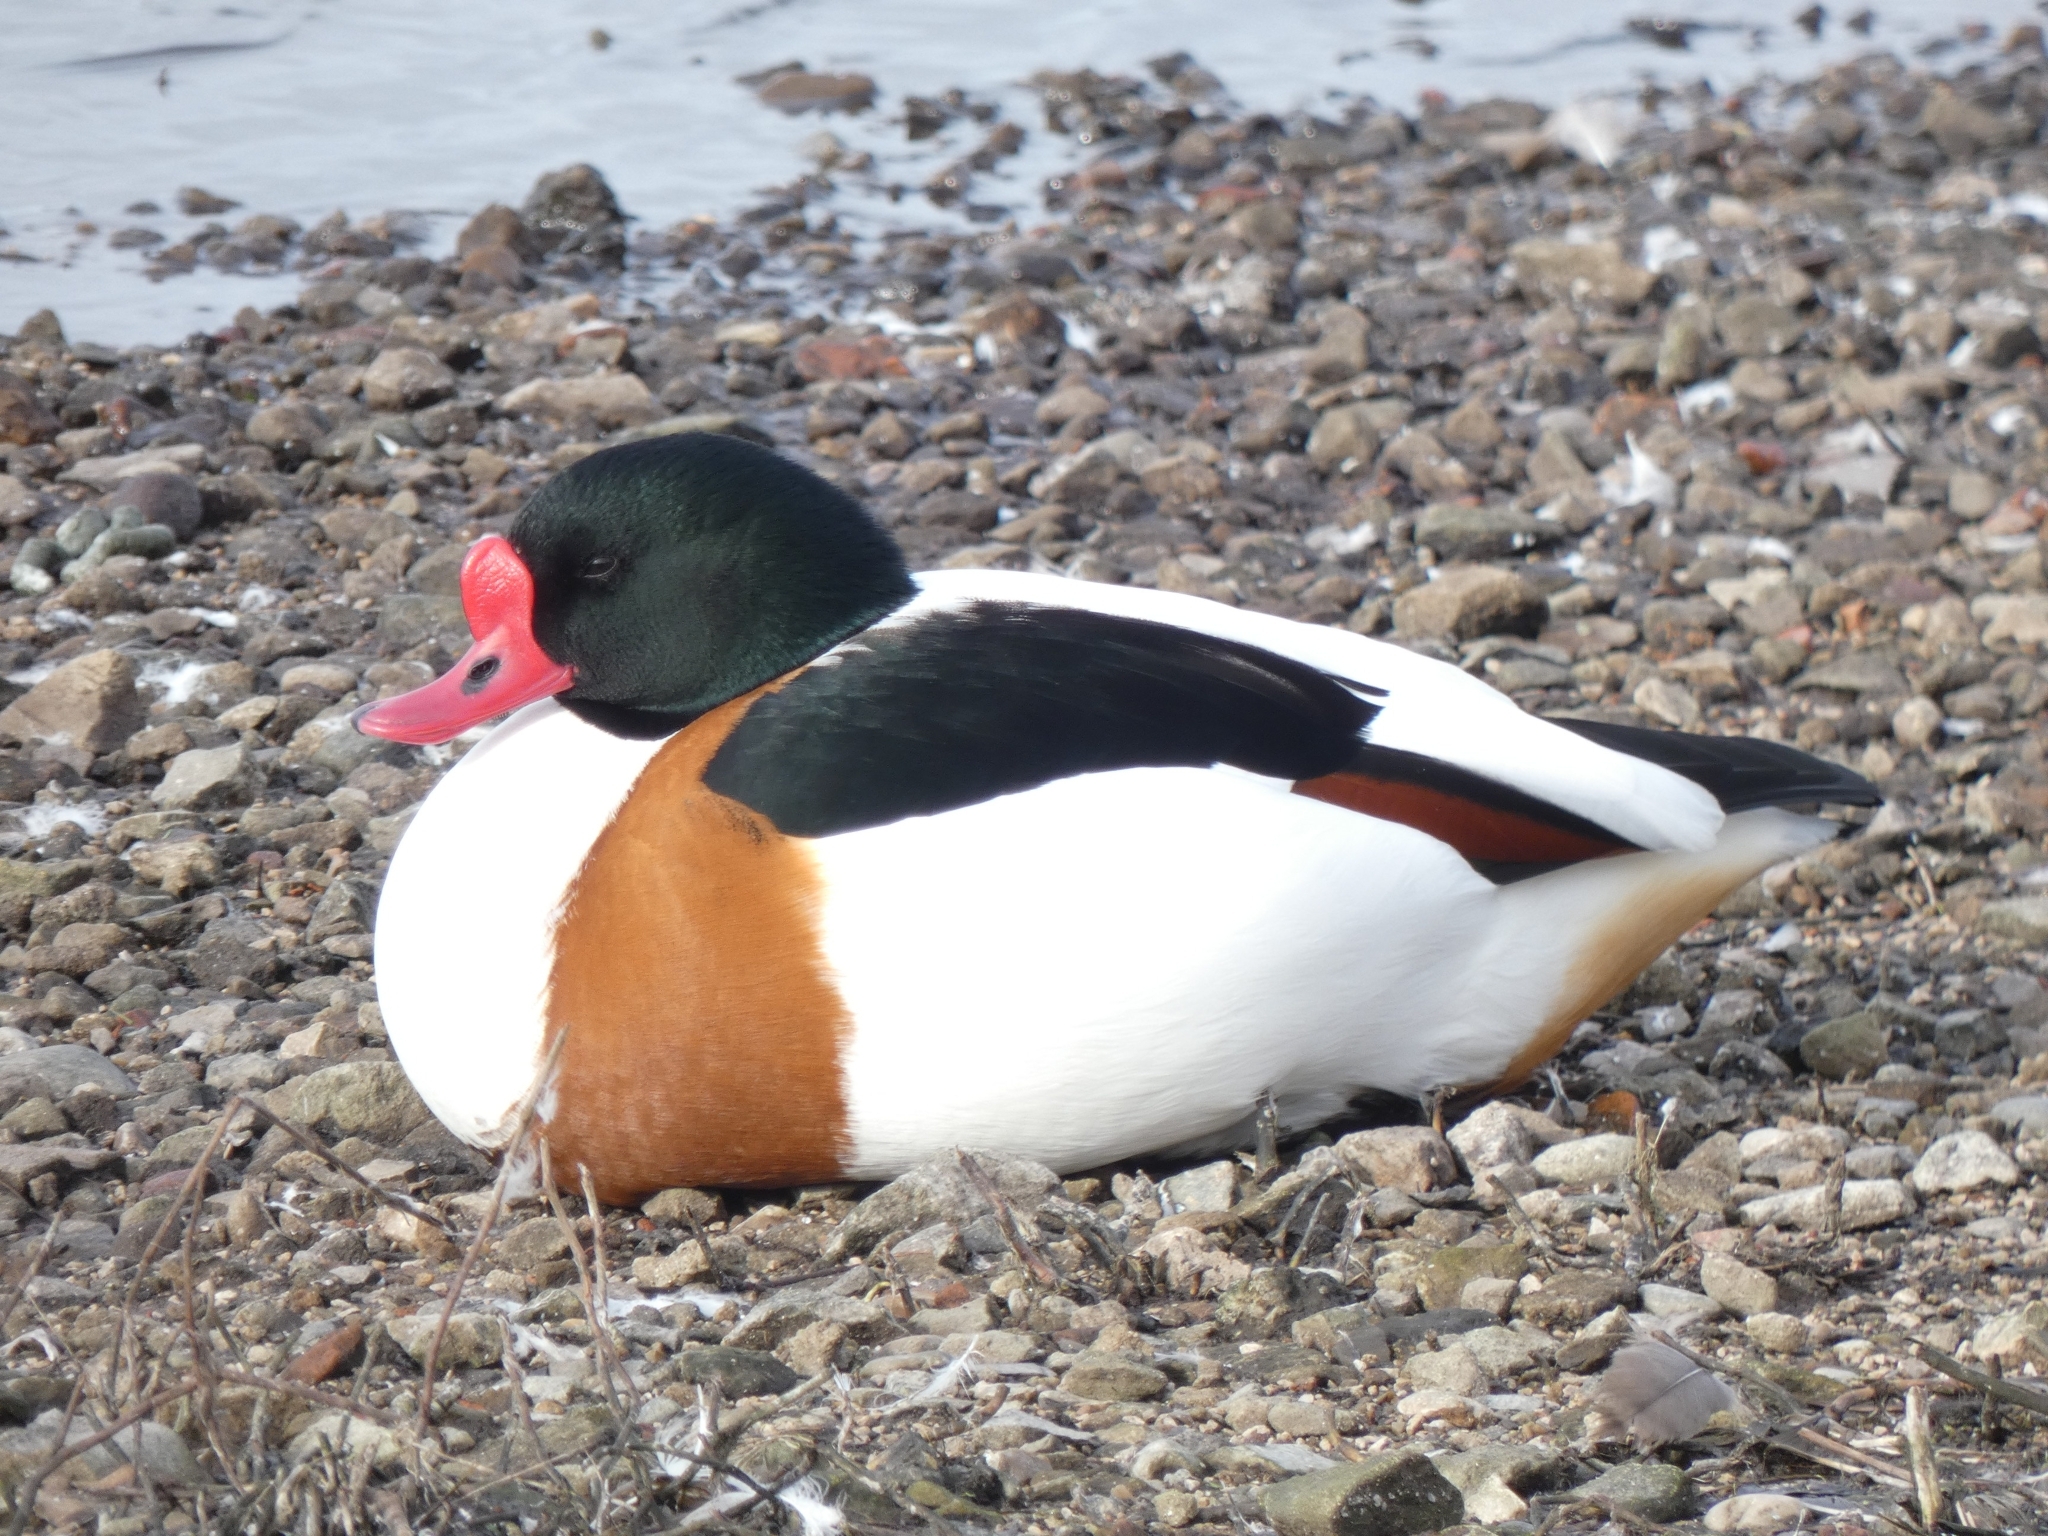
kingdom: Animalia
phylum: Chordata
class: Aves
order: Anseriformes
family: Anatidae
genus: Tadorna
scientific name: Tadorna tadorna
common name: Common shelduck
